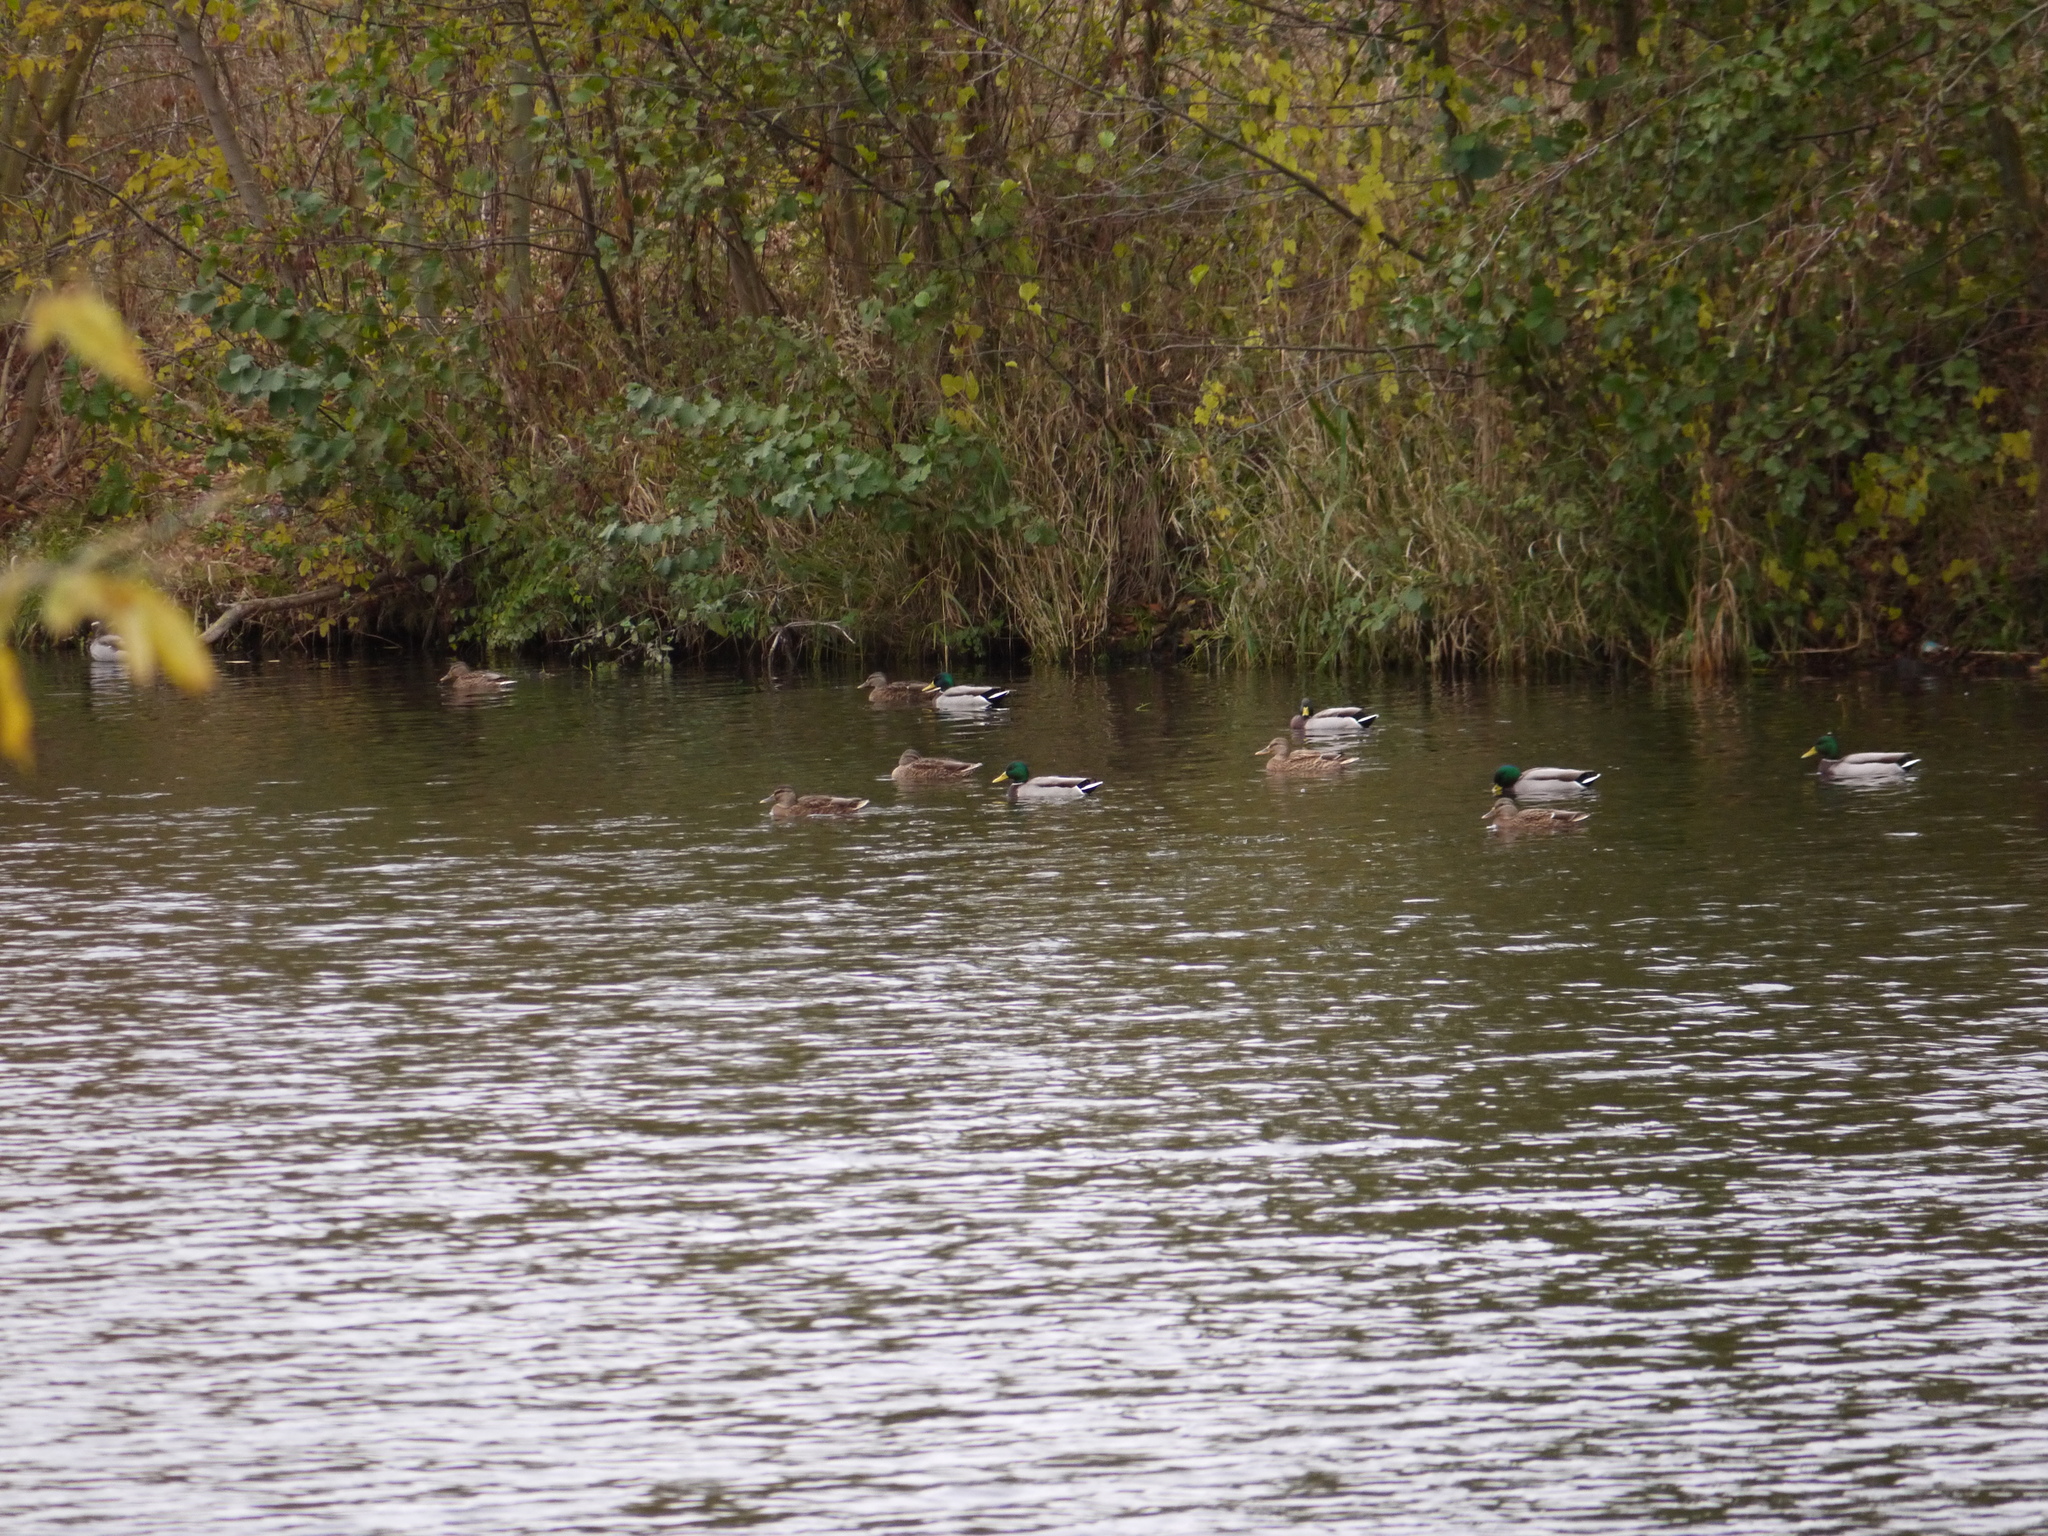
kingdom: Animalia
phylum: Chordata
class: Aves
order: Anseriformes
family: Anatidae
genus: Anas
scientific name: Anas platyrhynchos
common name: Mallard
